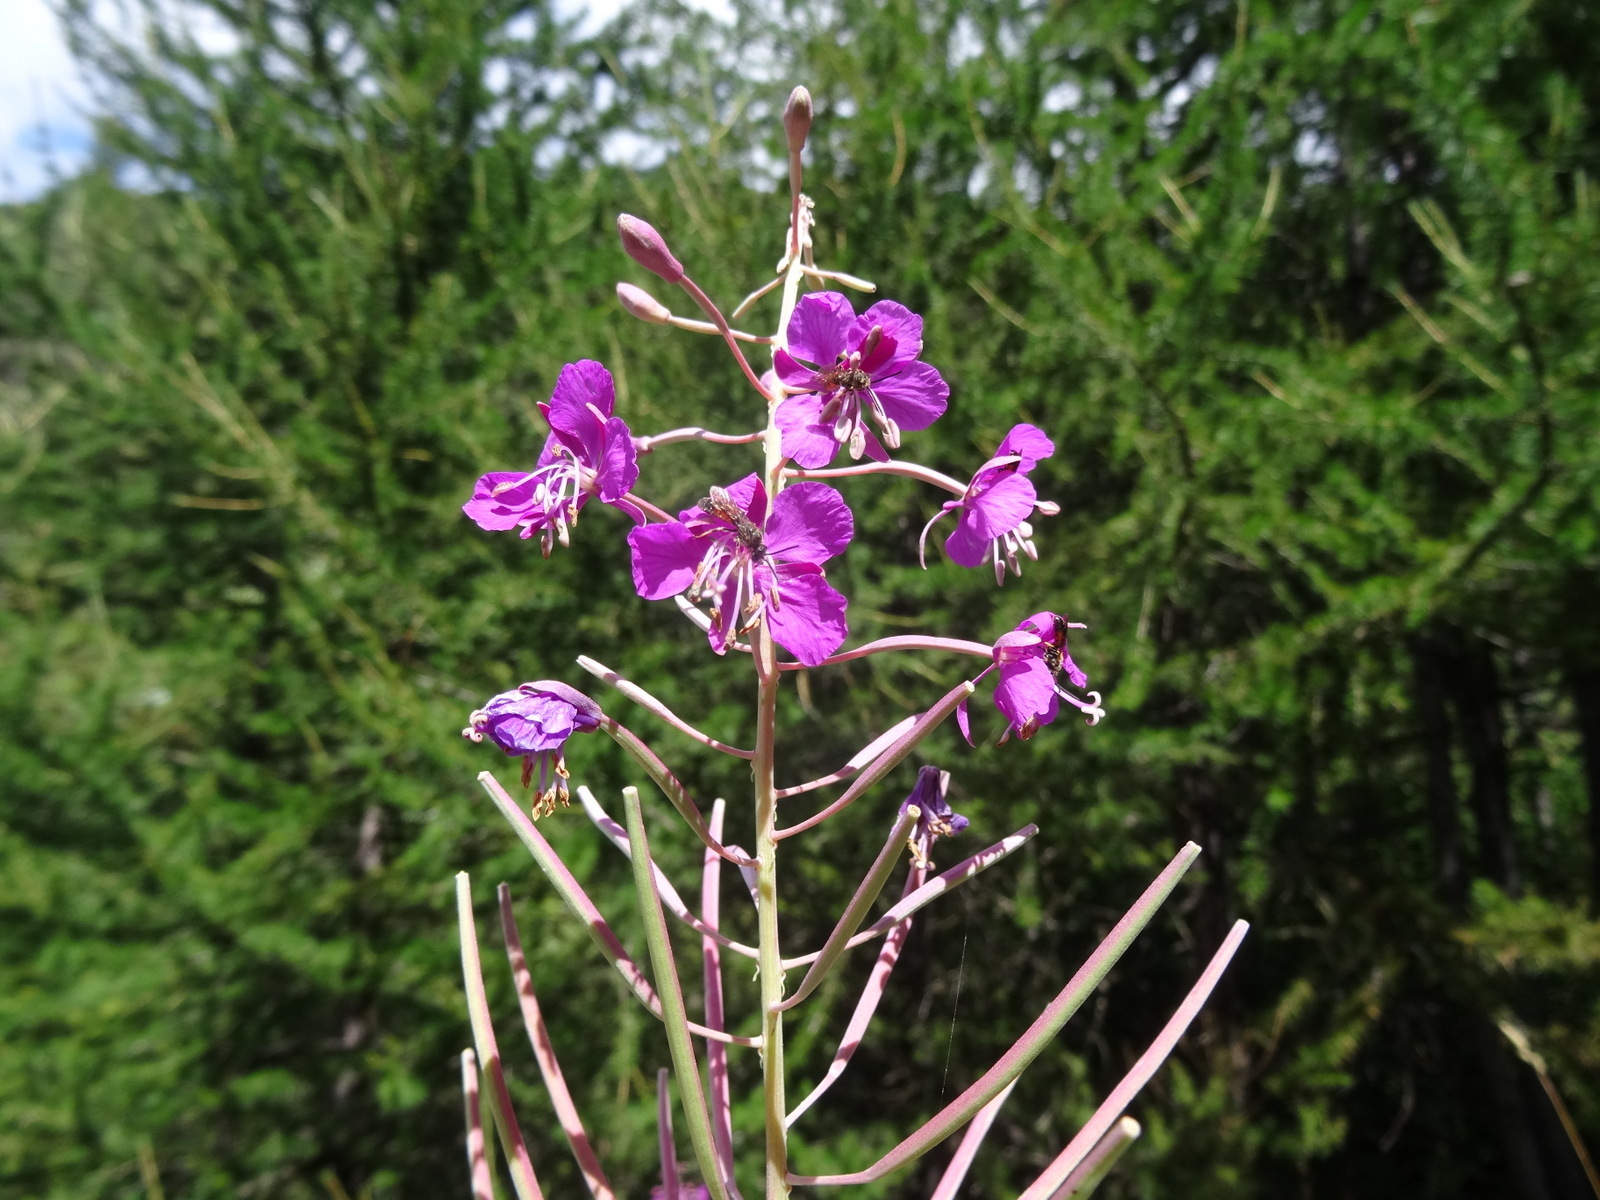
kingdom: Plantae
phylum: Tracheophyta
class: Magnoliopsida
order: Myrtales
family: Onagraceae
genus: Chamaenerion
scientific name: Chamaenerion angustifolium
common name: Fireweed
